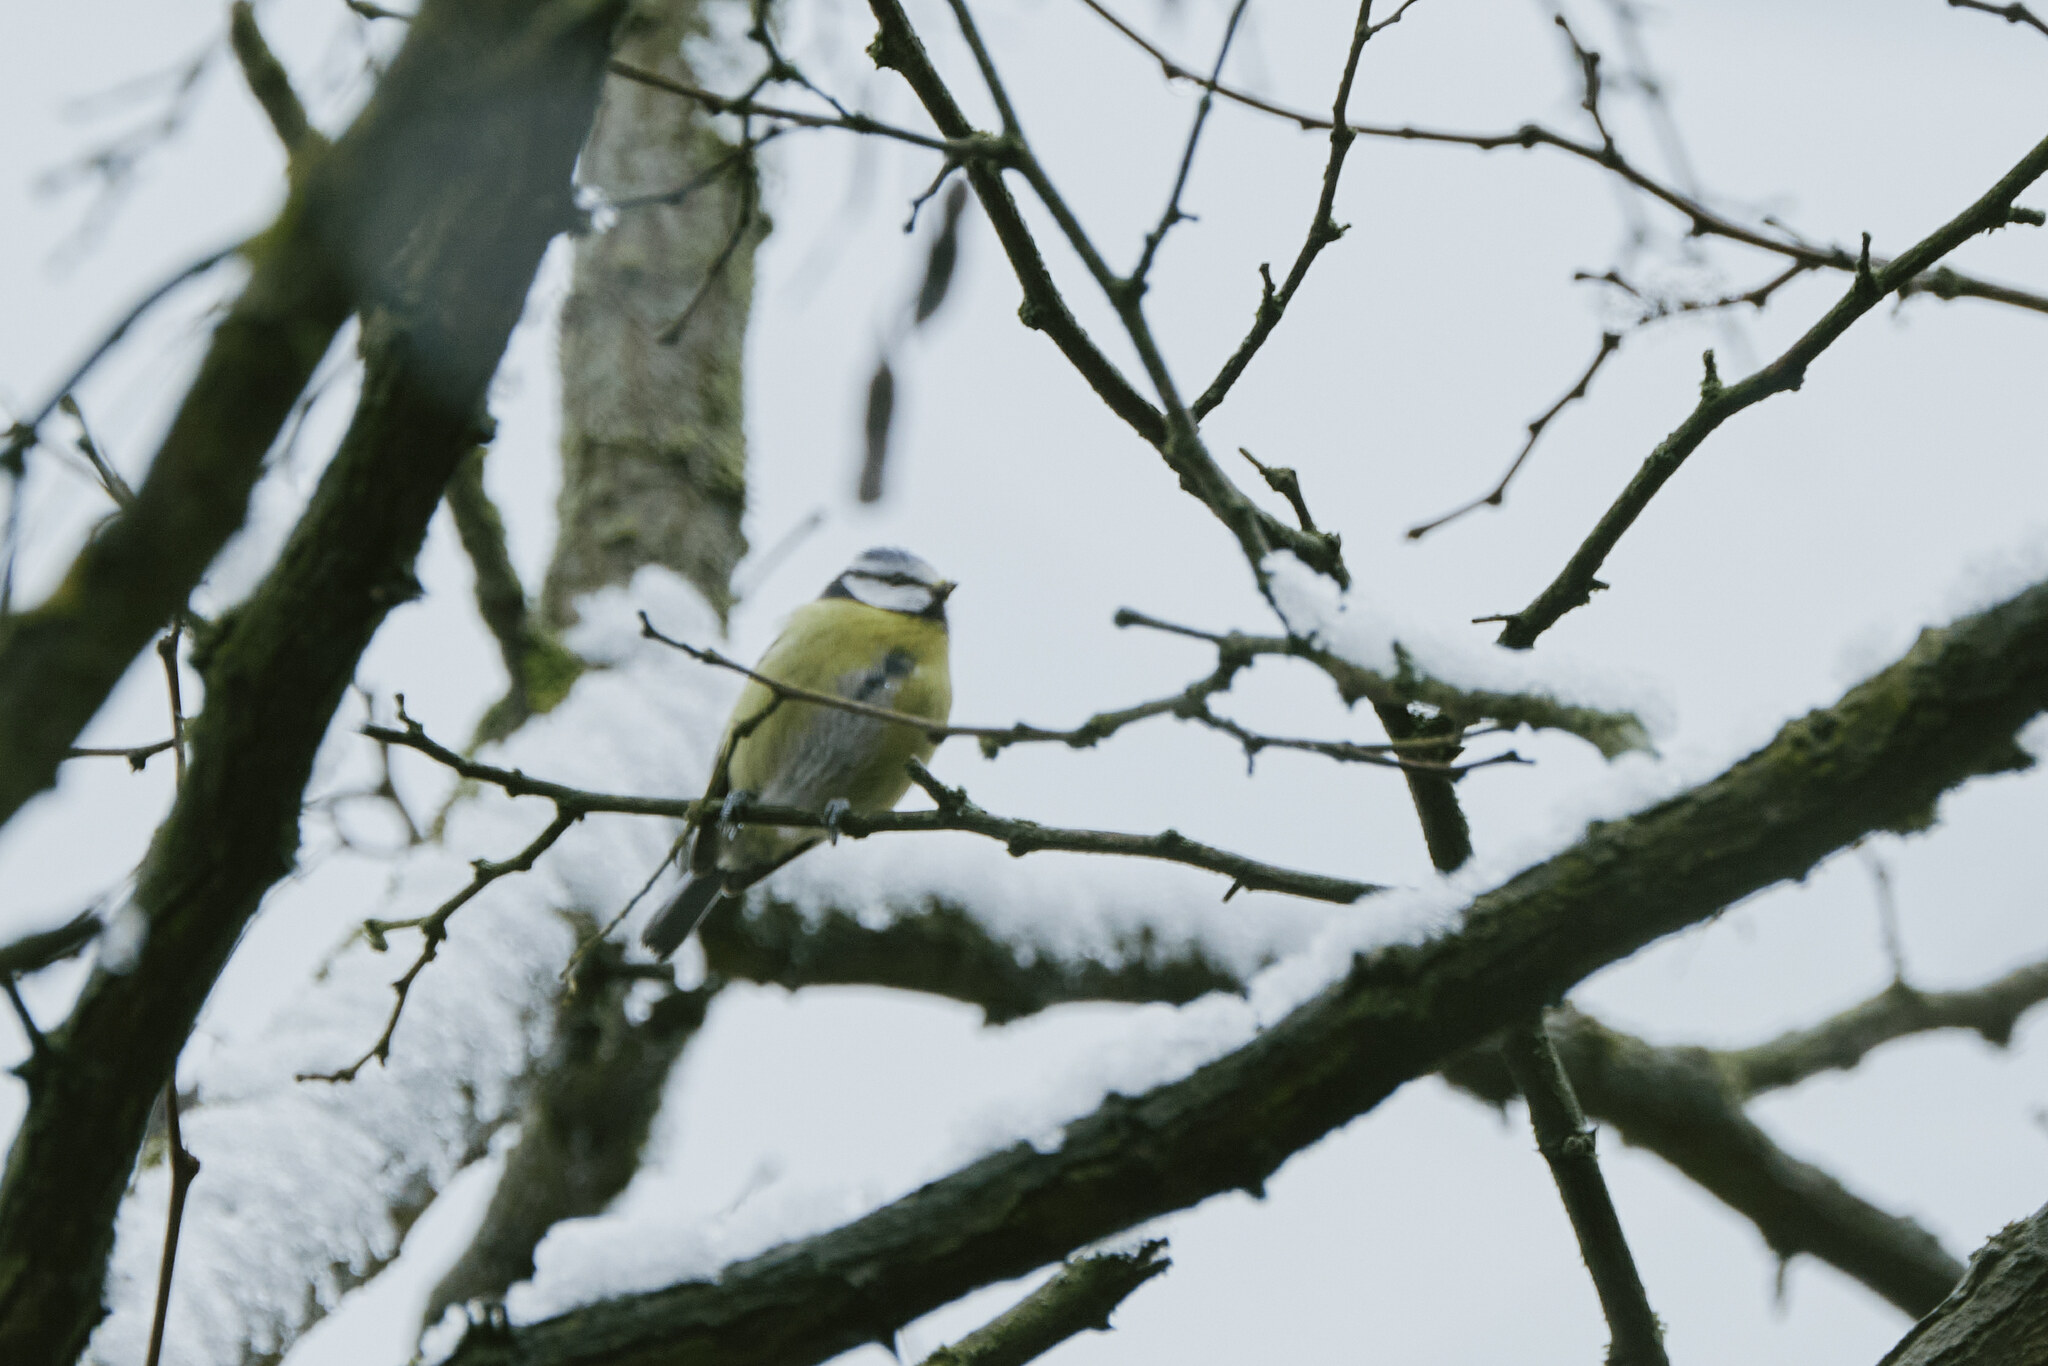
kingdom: Animalia
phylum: Chordata
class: Aves
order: Passeriformes
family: Paridae
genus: Cyanistes
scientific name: Cyanistes caeruleus
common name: Eurasian blue tit
